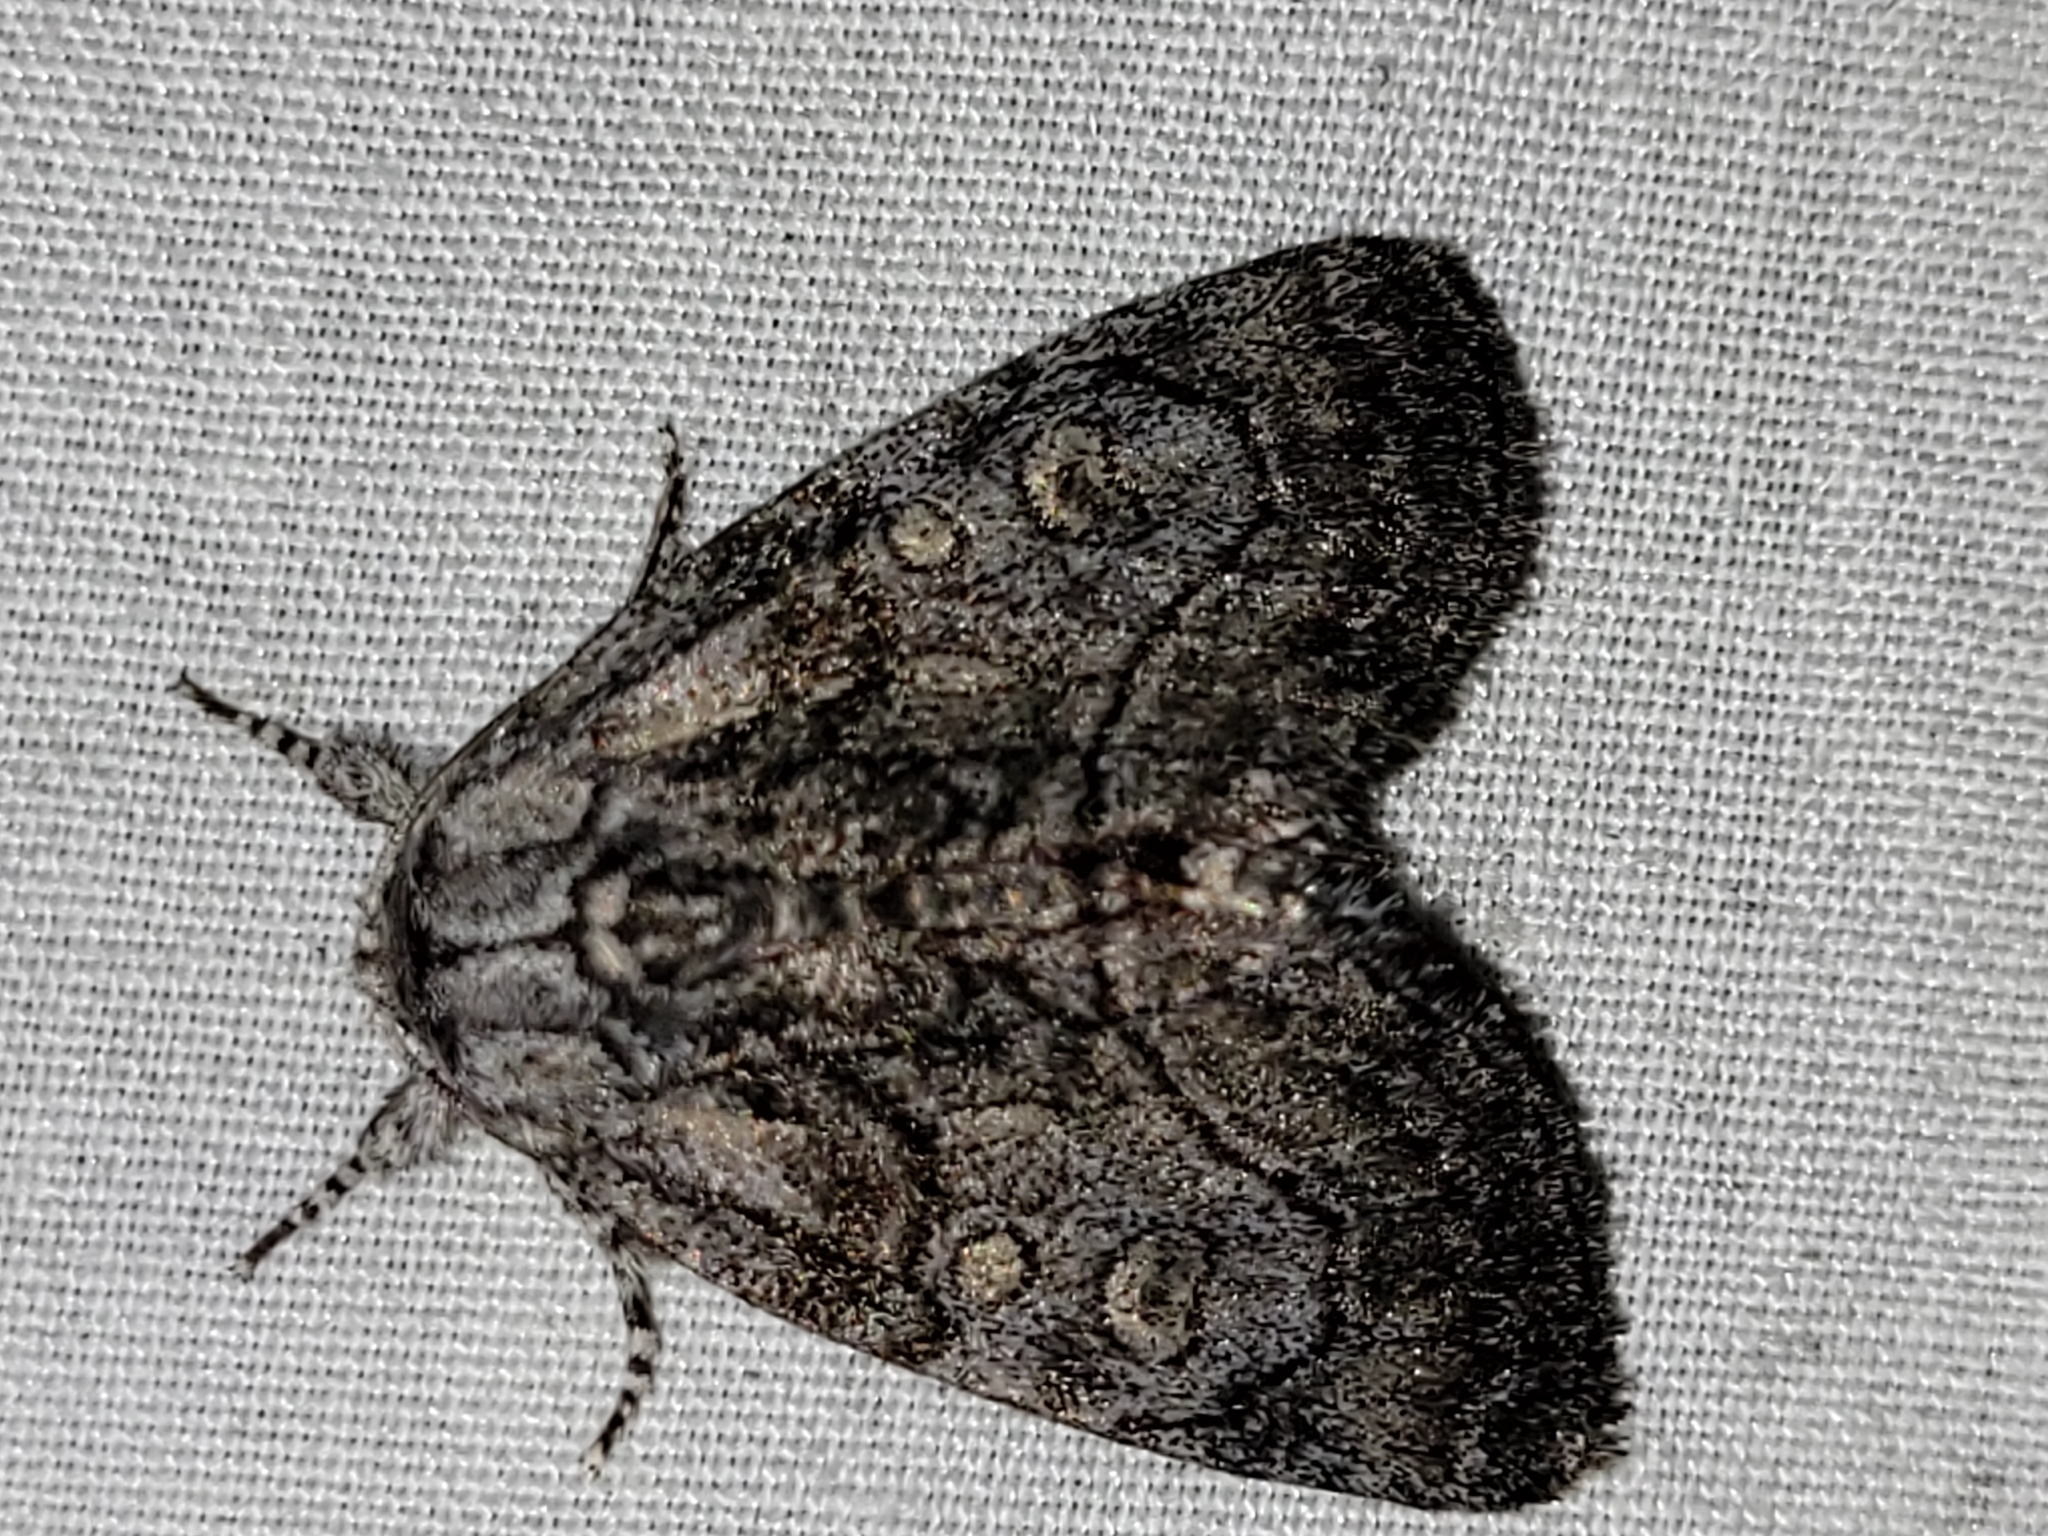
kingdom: Animalia
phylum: Arthropoda
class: Insecta
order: Lepidoptera
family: Noctuidae
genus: Raphia
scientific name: Raphia frater
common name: Brother
